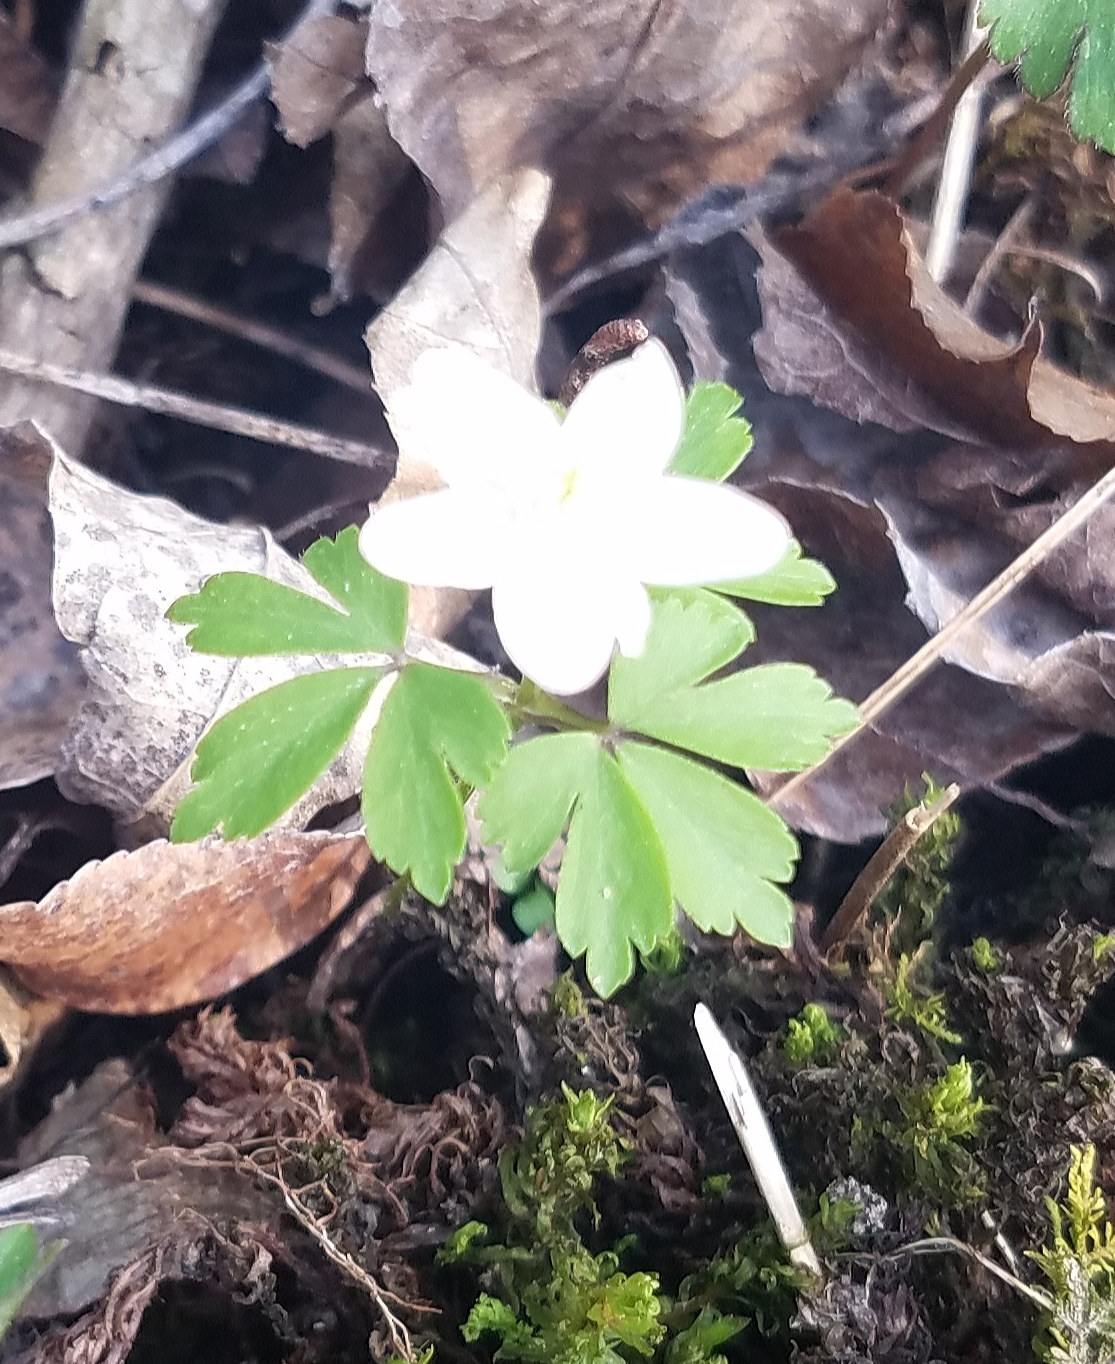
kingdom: Plantae
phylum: Tracheophyta
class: Magnoliopsida
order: Ranunculales
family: Ranunculaceae
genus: Anemone
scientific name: Anemone quinquefolia
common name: Wood anemone
